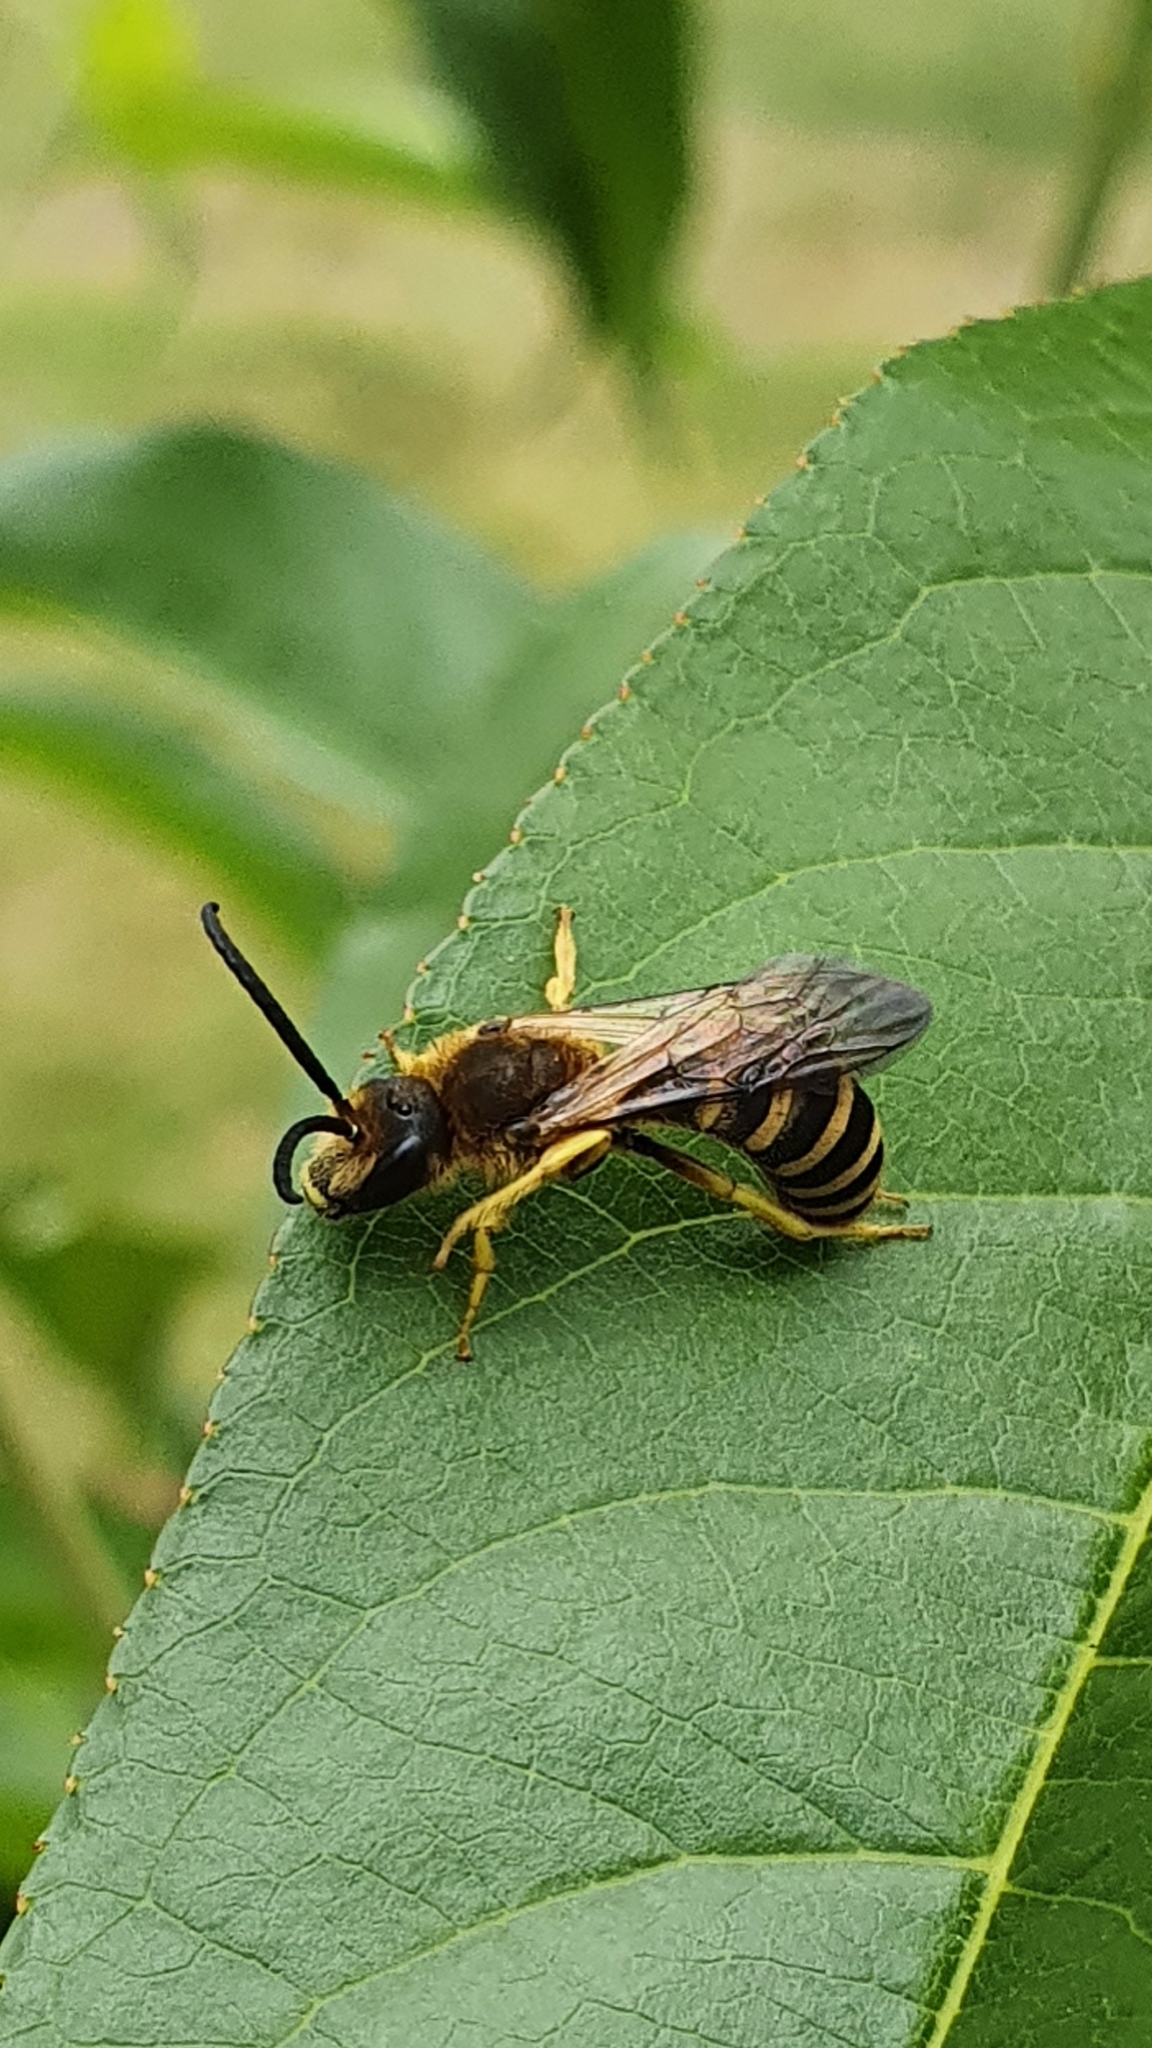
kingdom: Animalia
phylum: Arthropoda
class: Insecta
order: Hymenoptera
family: Halictidae
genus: Halictus
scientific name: Halictus scabiosae
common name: Great banded furrow bee
